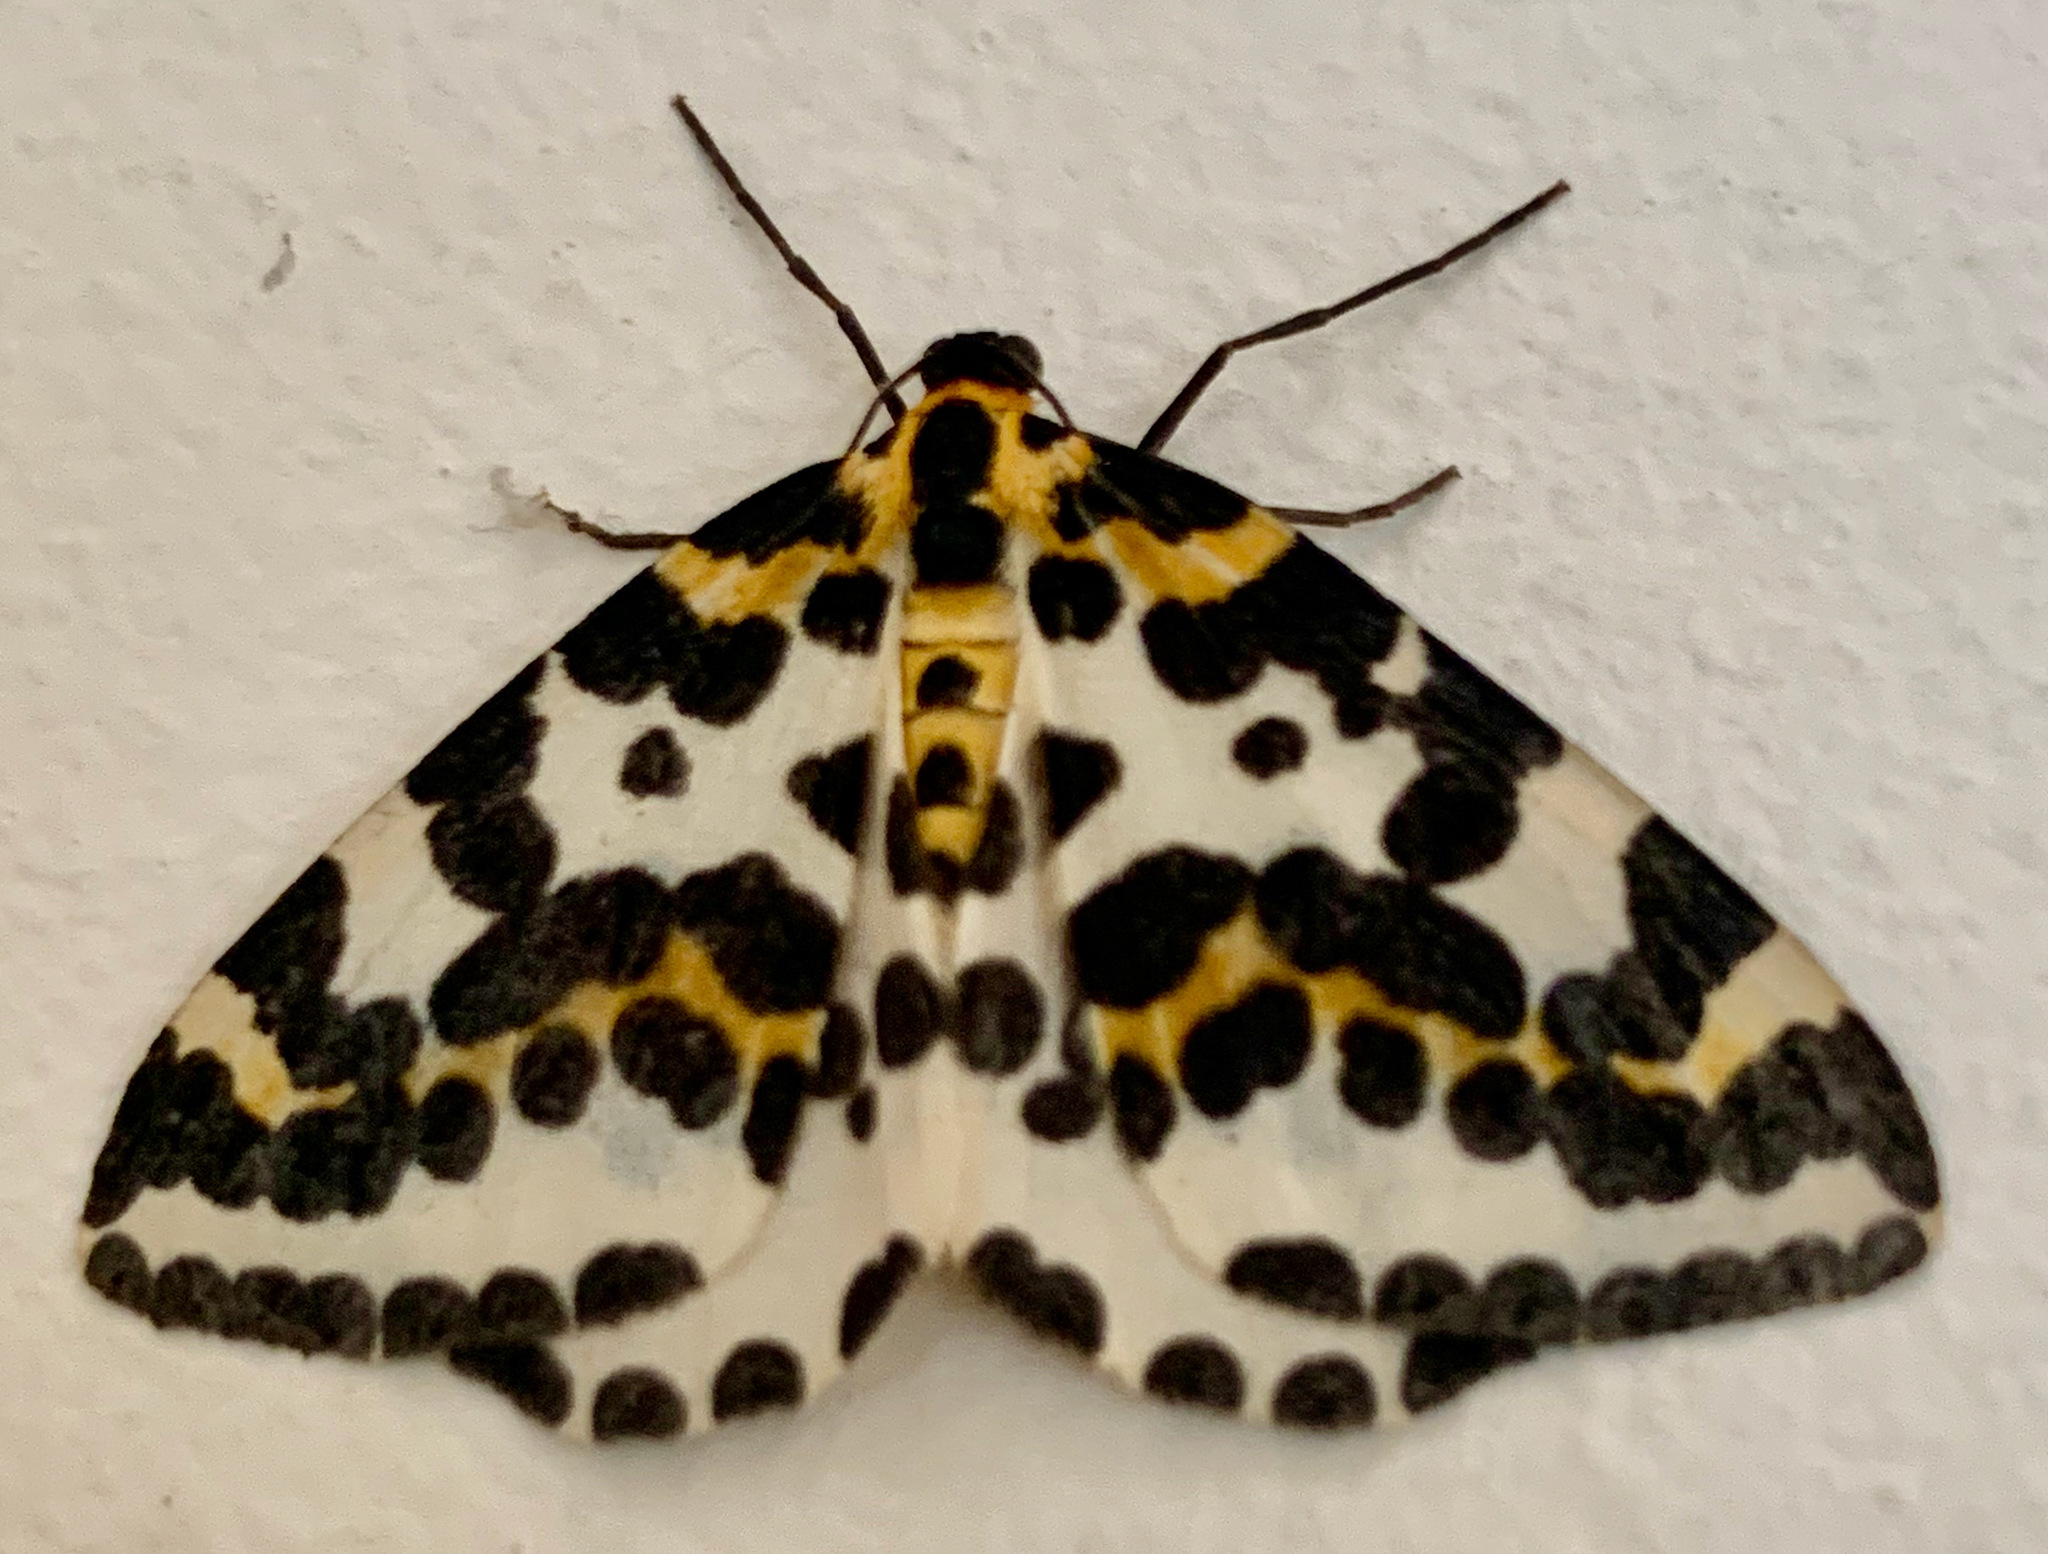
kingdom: Animalia
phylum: Arthropoda
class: Insecta
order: Lepidoptera
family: Geometridae
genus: Abraxas
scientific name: Abraxas grossulariata
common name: Magpie
